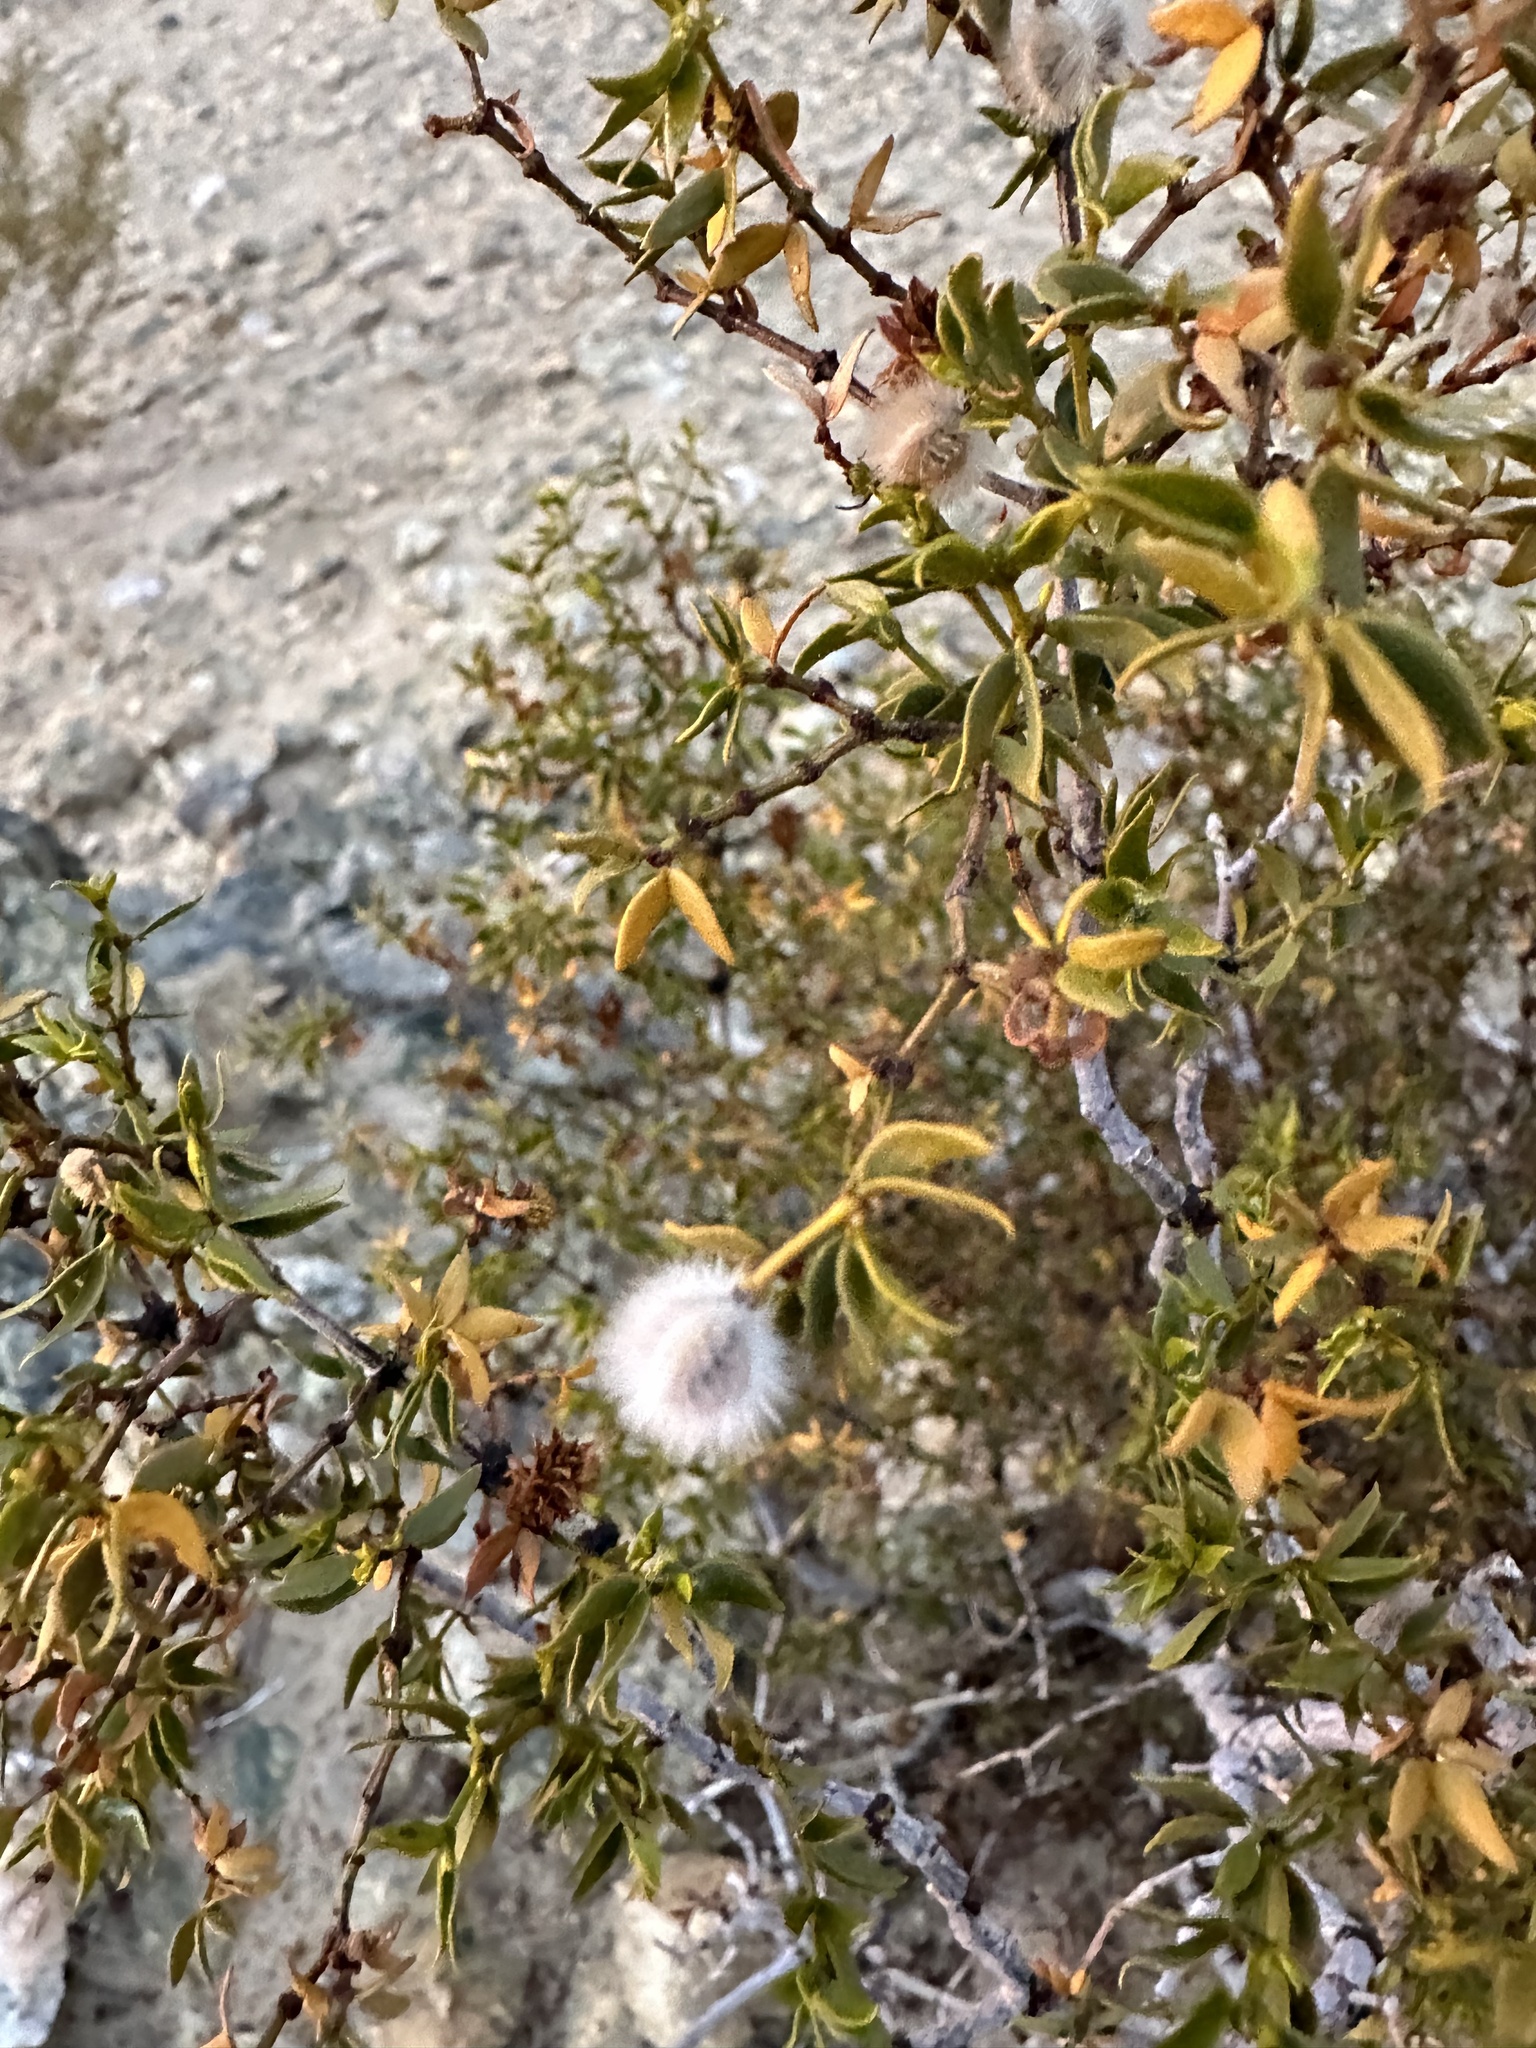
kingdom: Plantae
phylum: Tracheophyta
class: Magnoliopsida
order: Zygophyllales
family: Zygophyllaceae
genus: Larrea
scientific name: Larrea tridentata
